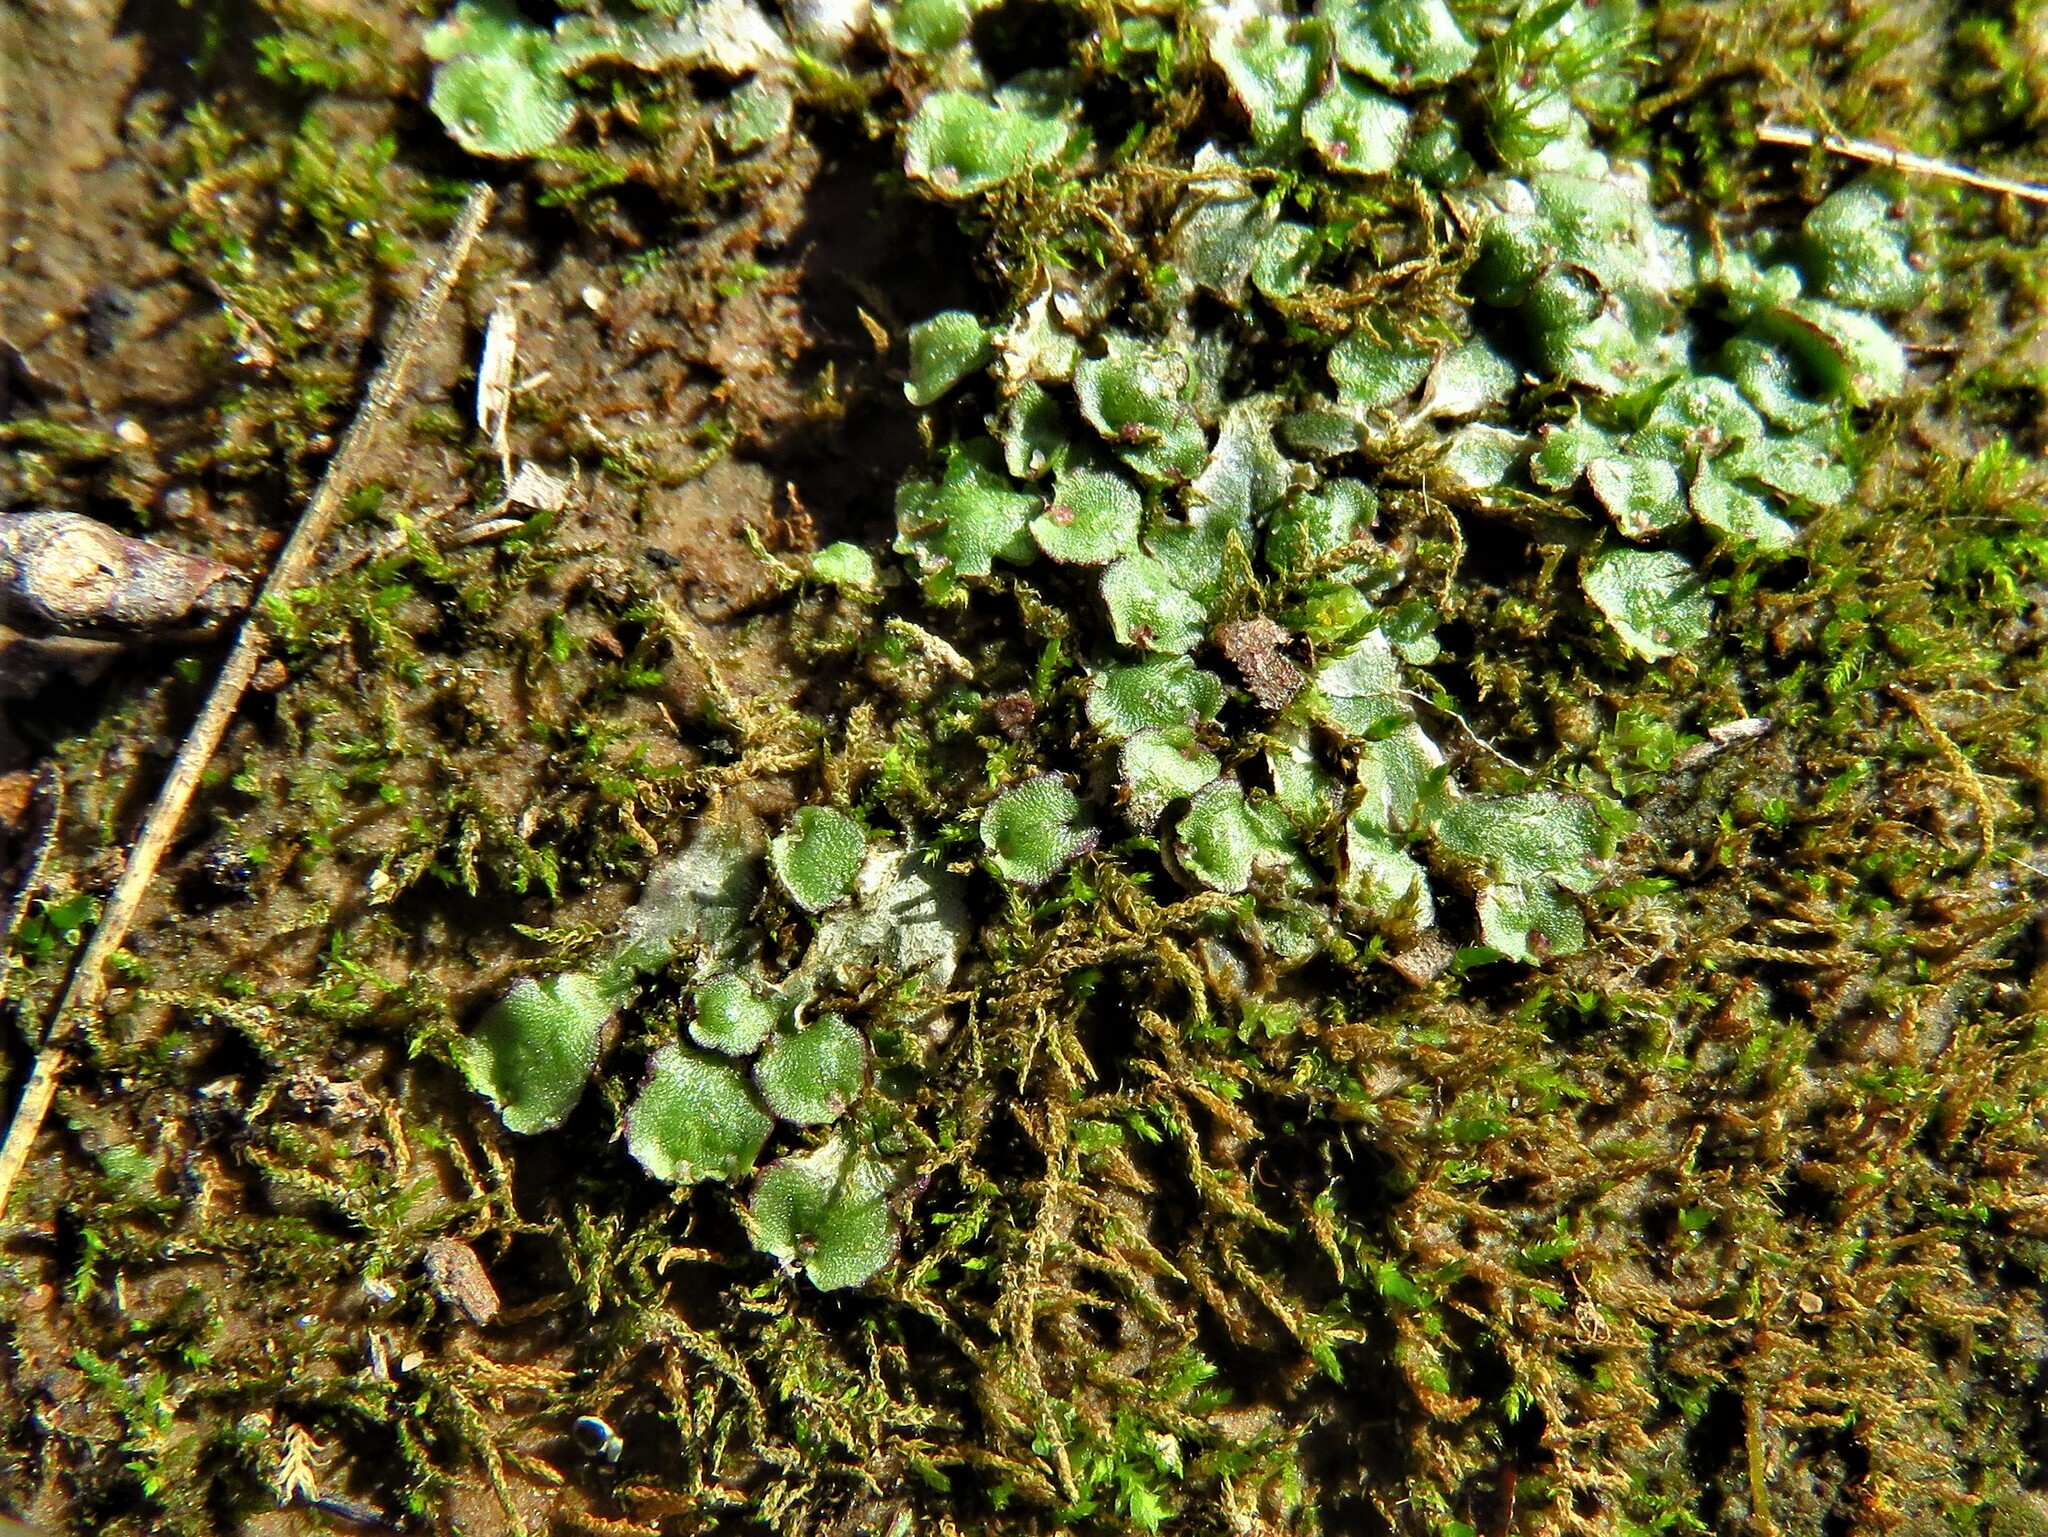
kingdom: Plantae
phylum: Marchantiophyta
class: Marchantiopsida
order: Marchantiales
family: Aytoniaceae
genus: Reboulia
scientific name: Reboulia hemisphaerica
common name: Purple-margined liverwort
